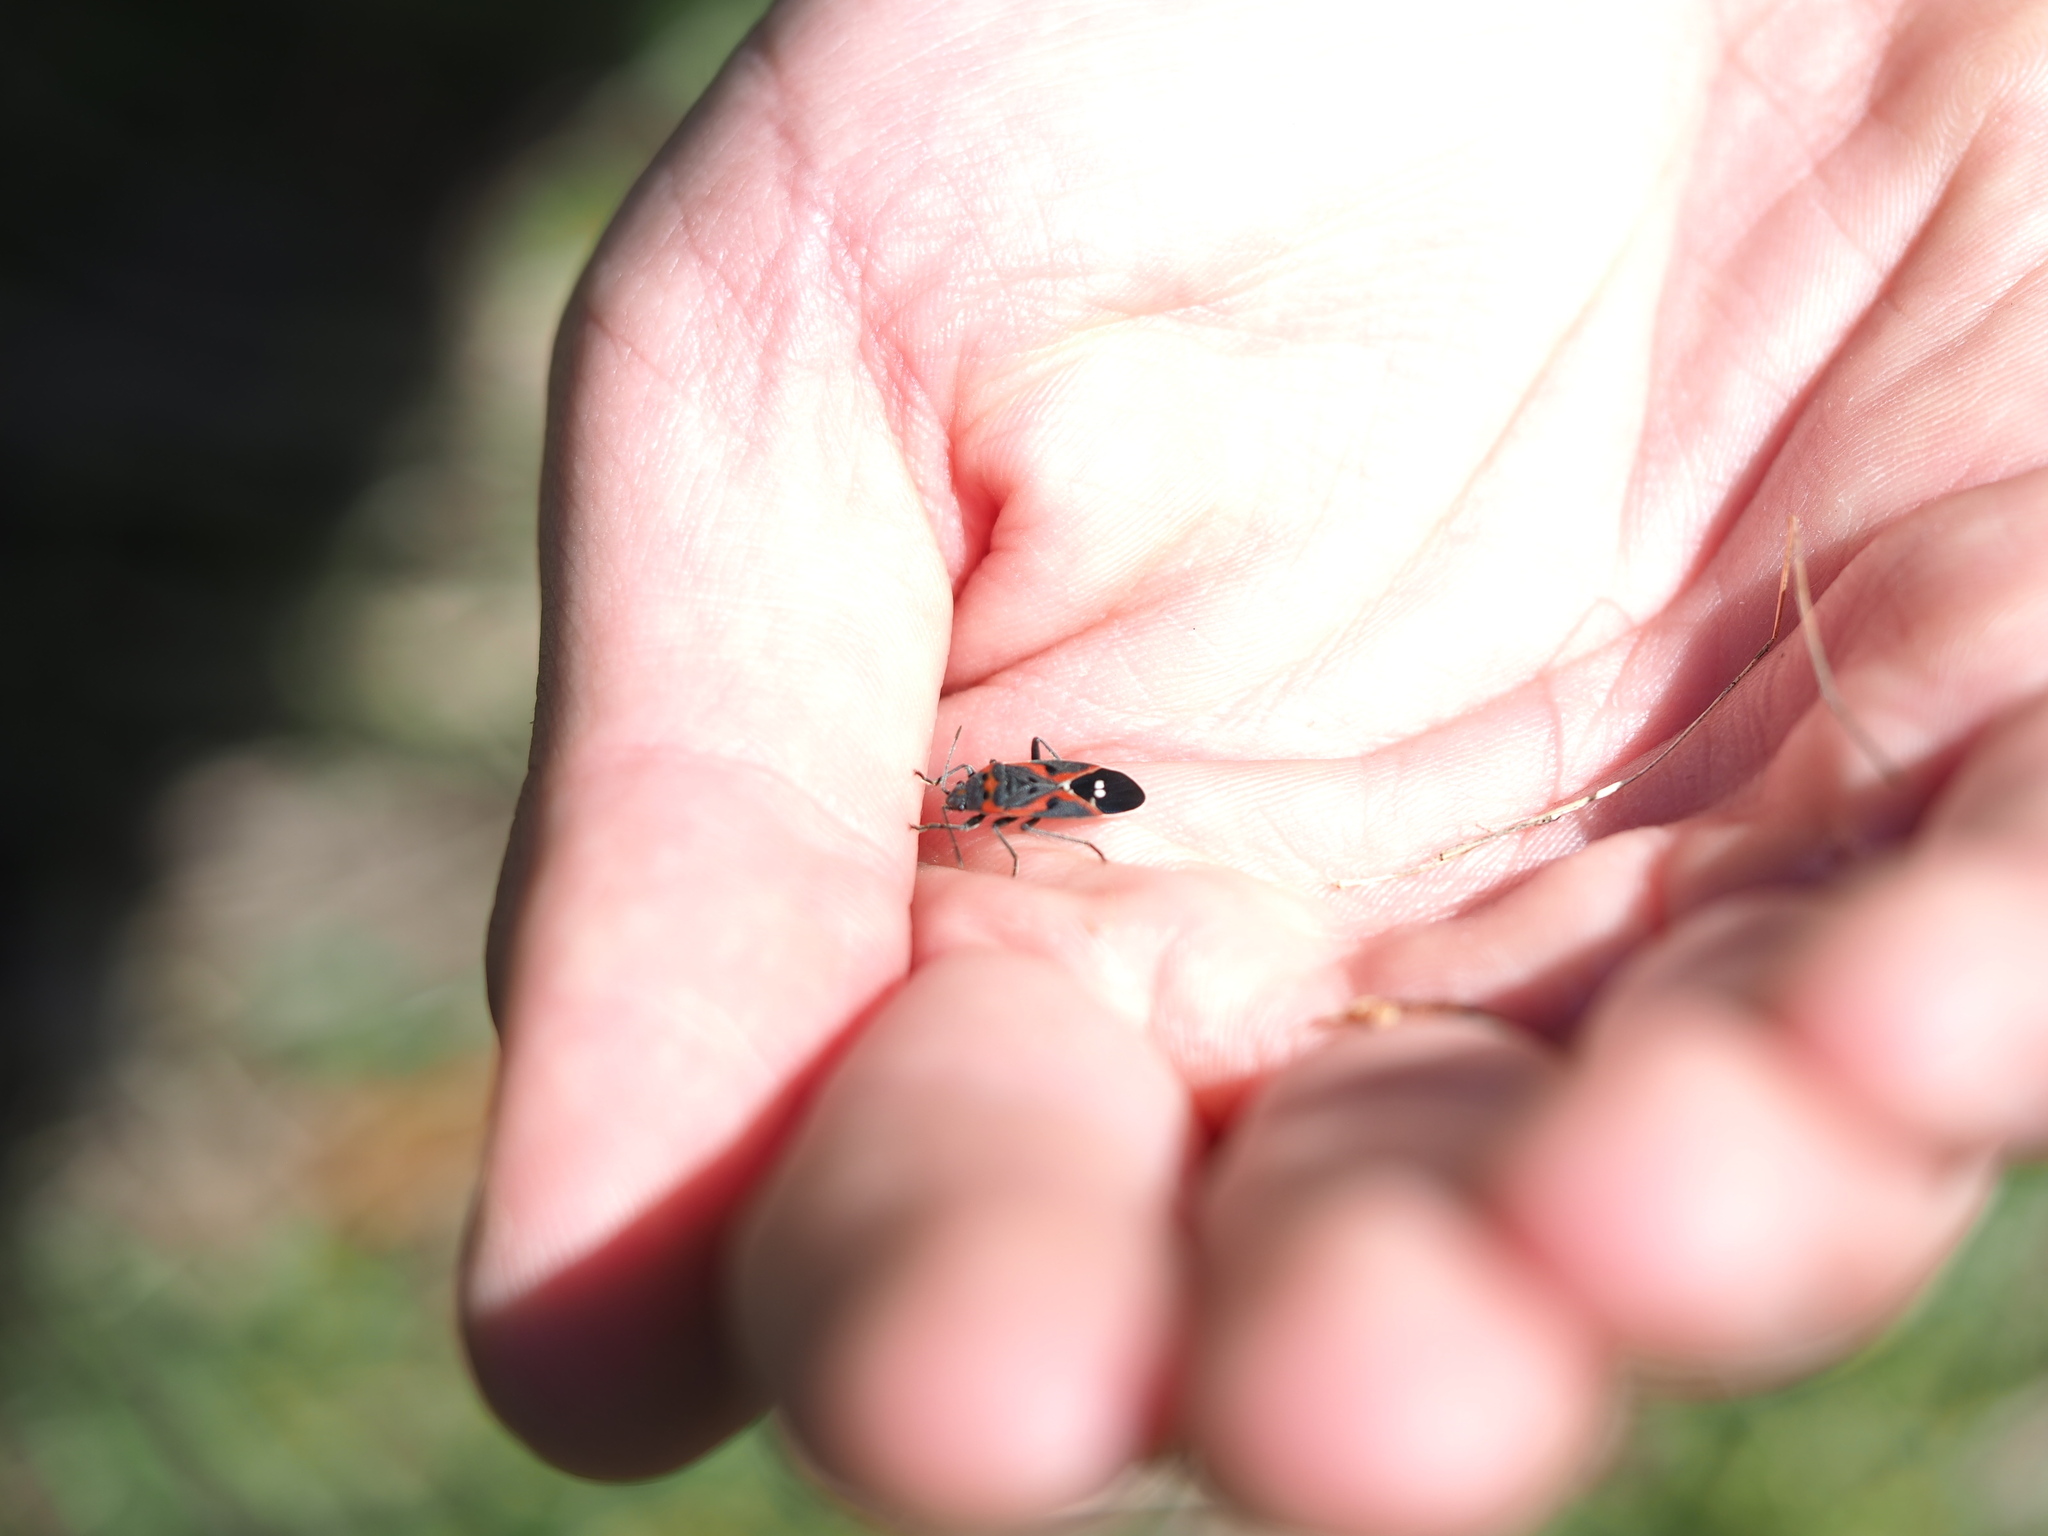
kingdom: Animalia
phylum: Arthropoda
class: Insecta
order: Hemiptera
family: Lygaeidae
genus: Lygaeus
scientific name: Lygaeus kalmii
